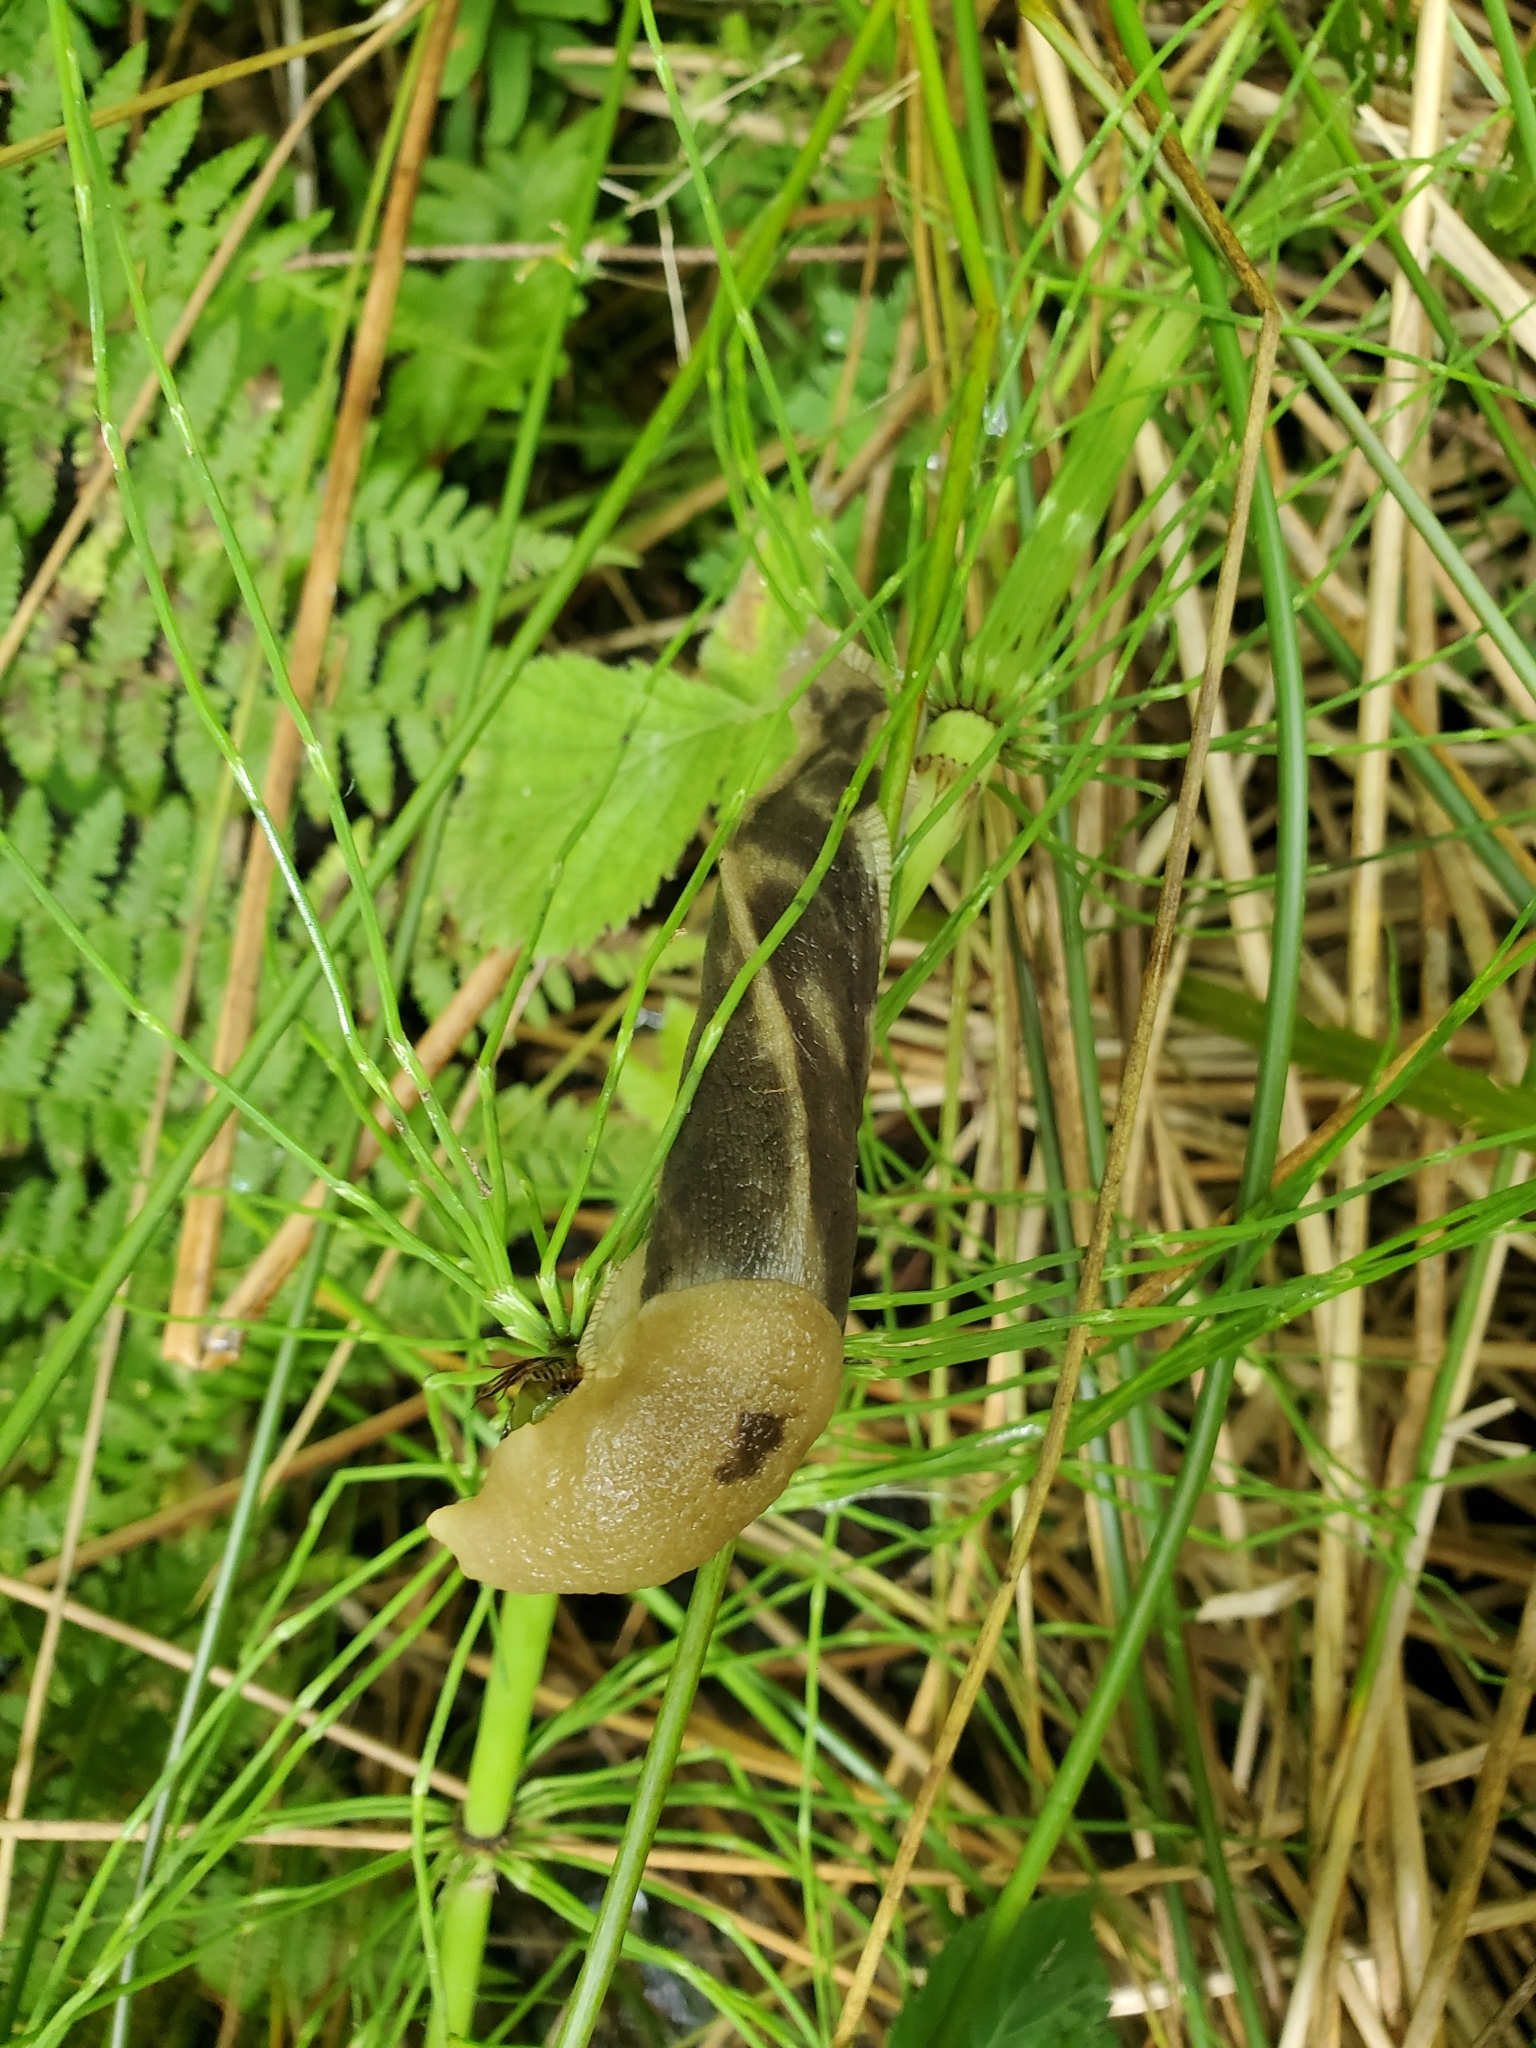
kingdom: Animalia
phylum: Mollusca
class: Gastropoda
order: Stylommatophora
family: Ariolimacidae
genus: Ariolimax
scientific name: Ariolimax columbianus
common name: Pacific banana slug
